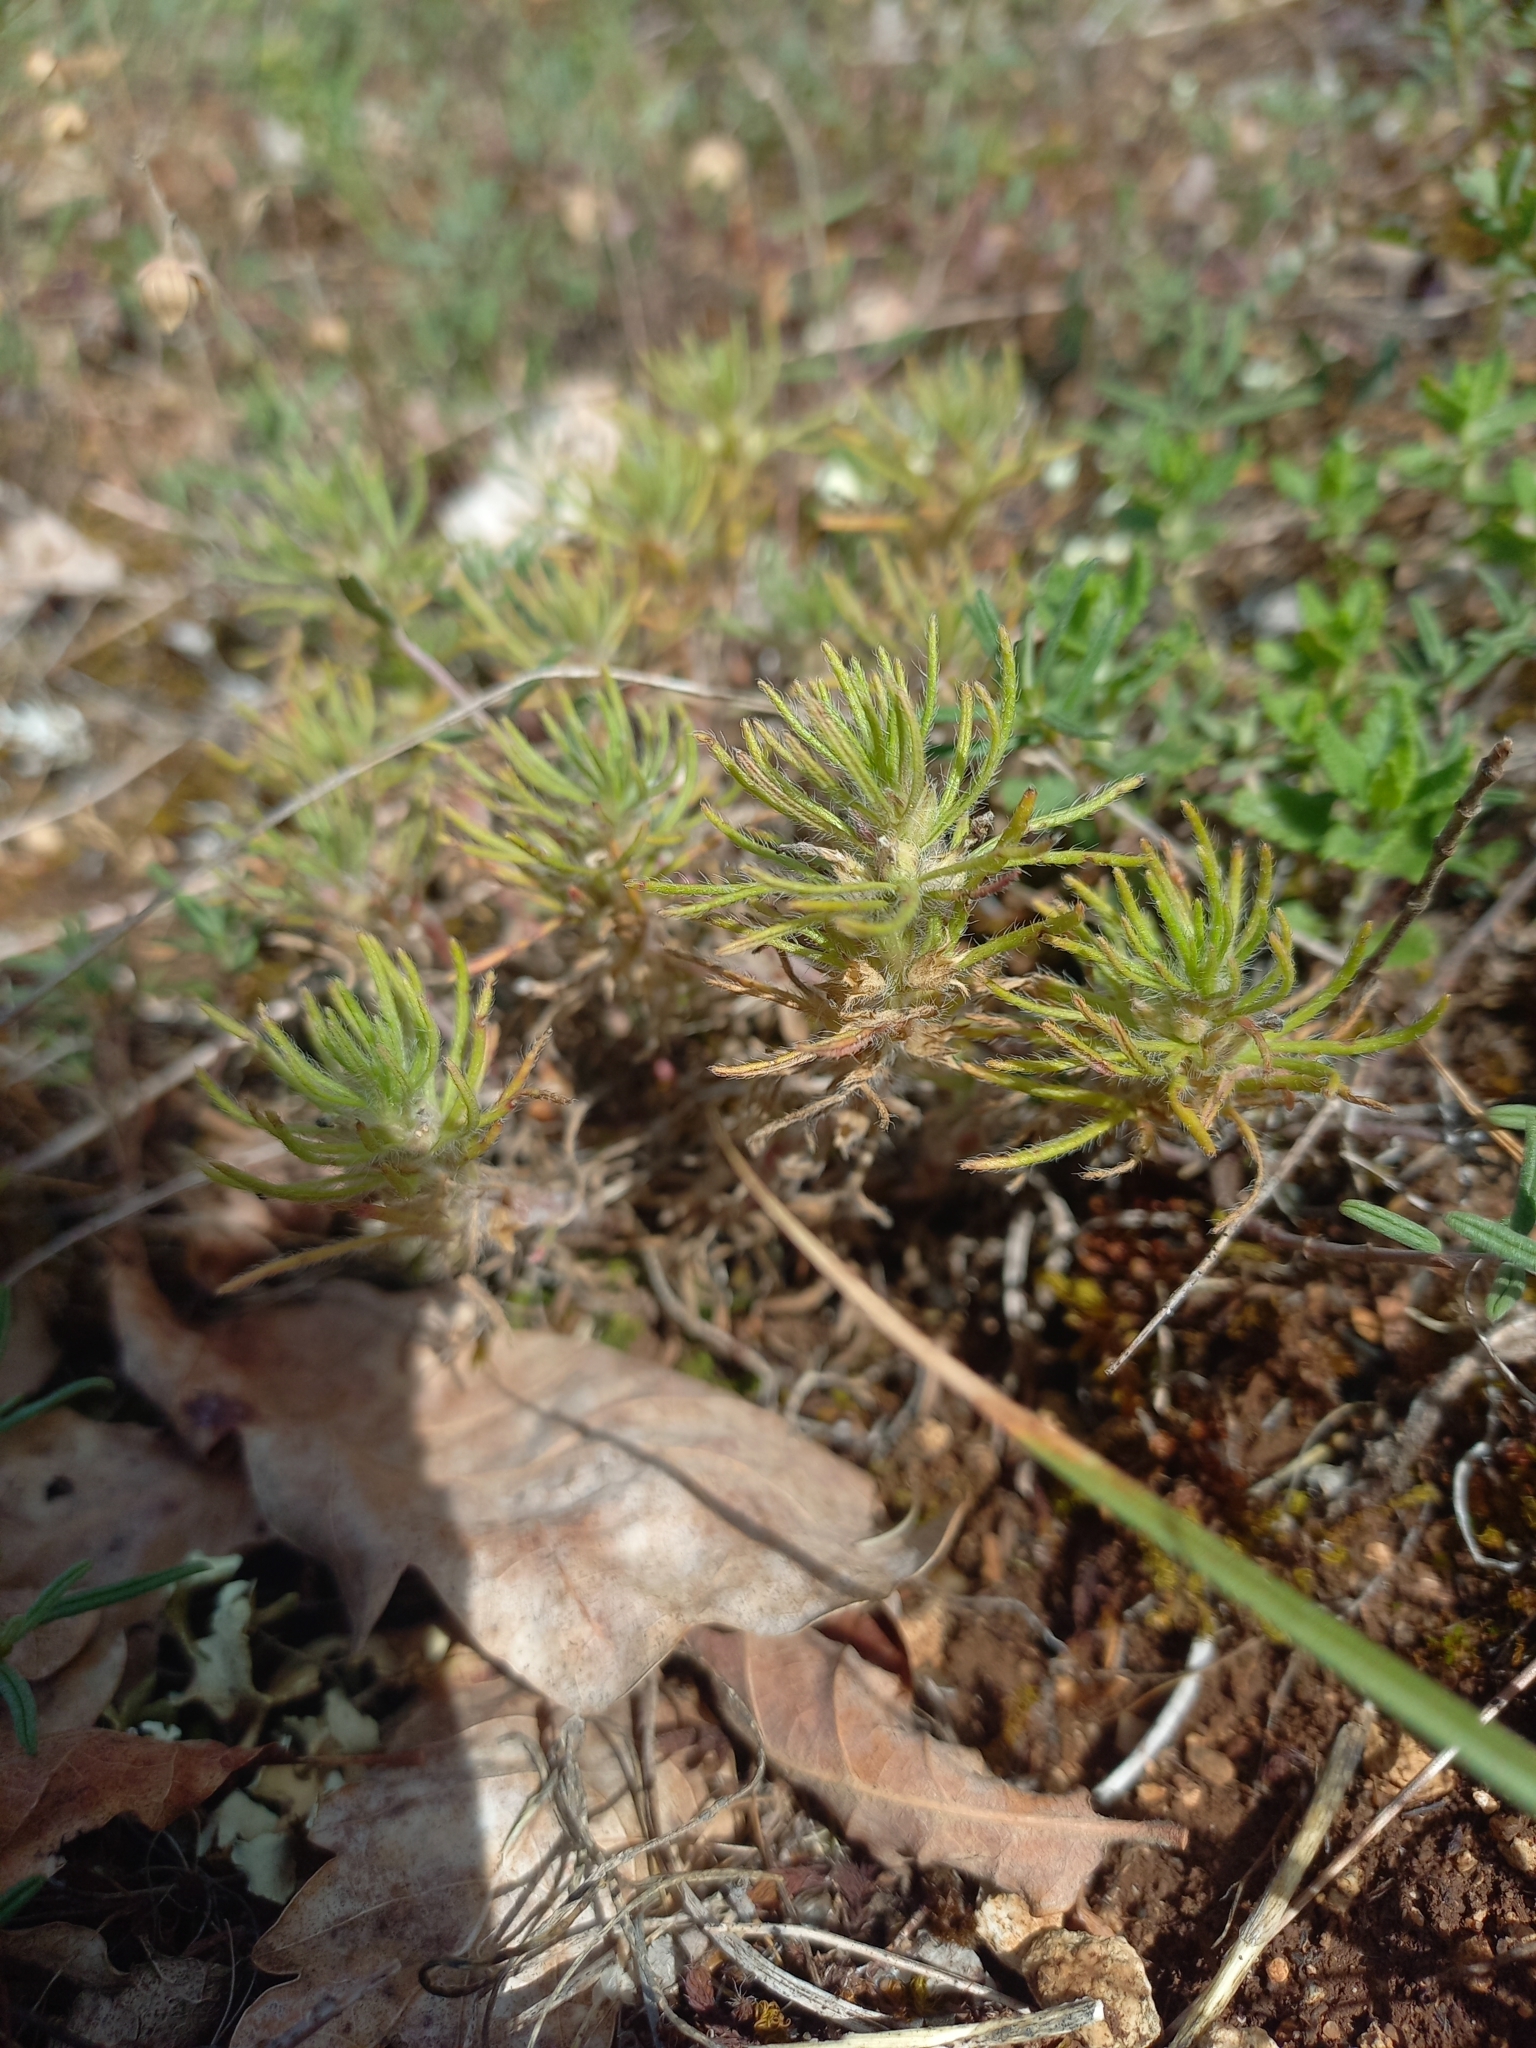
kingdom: Plantae
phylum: Tracheophyta
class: Magnoliopsida
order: Lamiales
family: Lamiaceae
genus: Ajuga
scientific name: Ajuga chamaepitys
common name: Ground-pine
